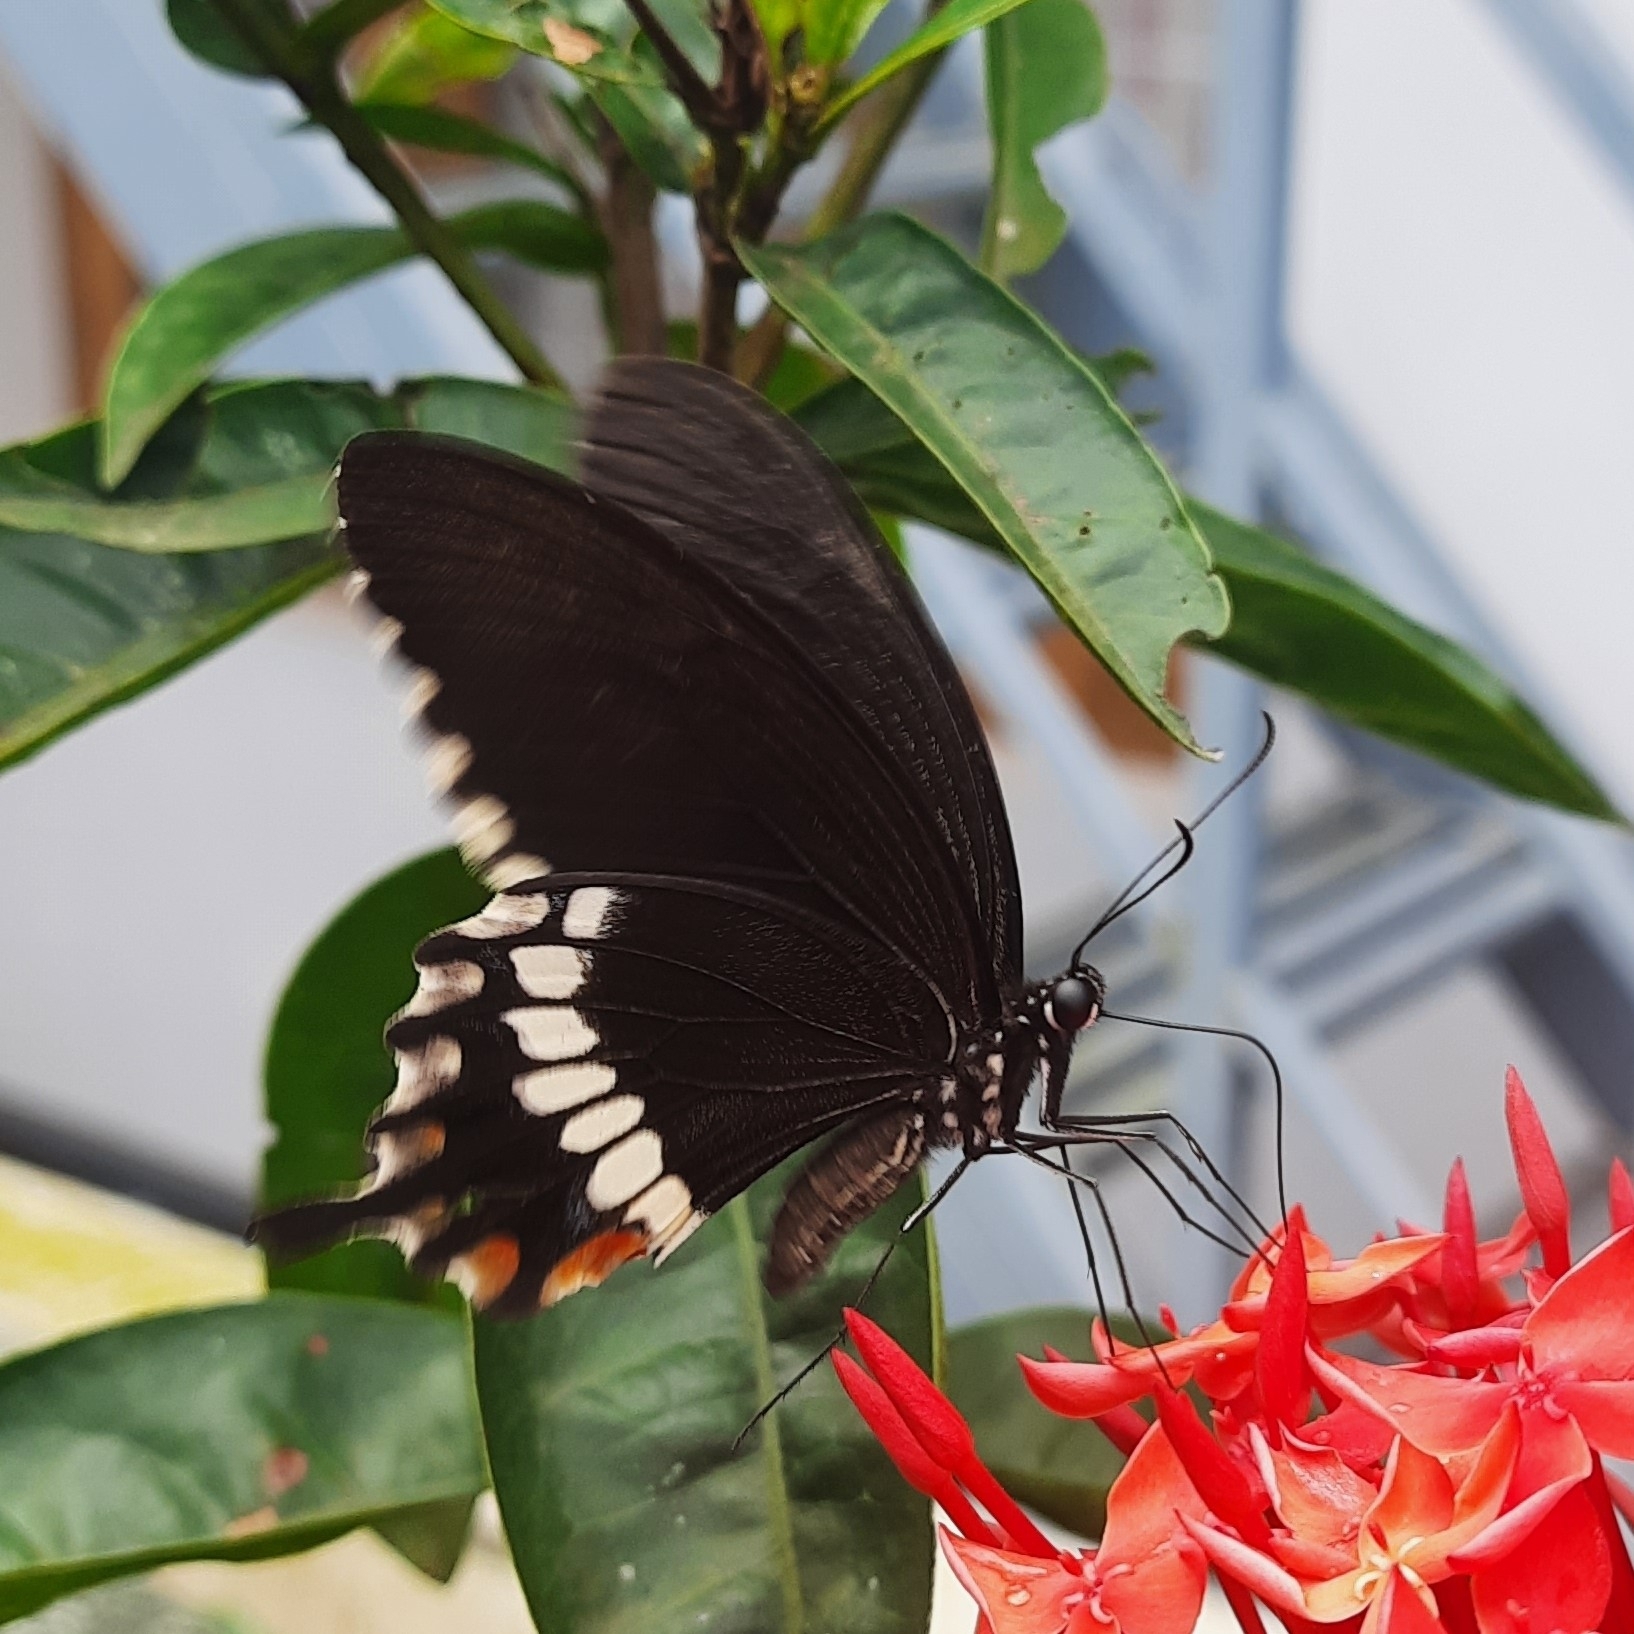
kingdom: Animalia
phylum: Arthropoda
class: Insecta
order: Lepidoptera
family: Papilionidae
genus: Papilio
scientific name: Papilio polytes
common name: Common mormon
